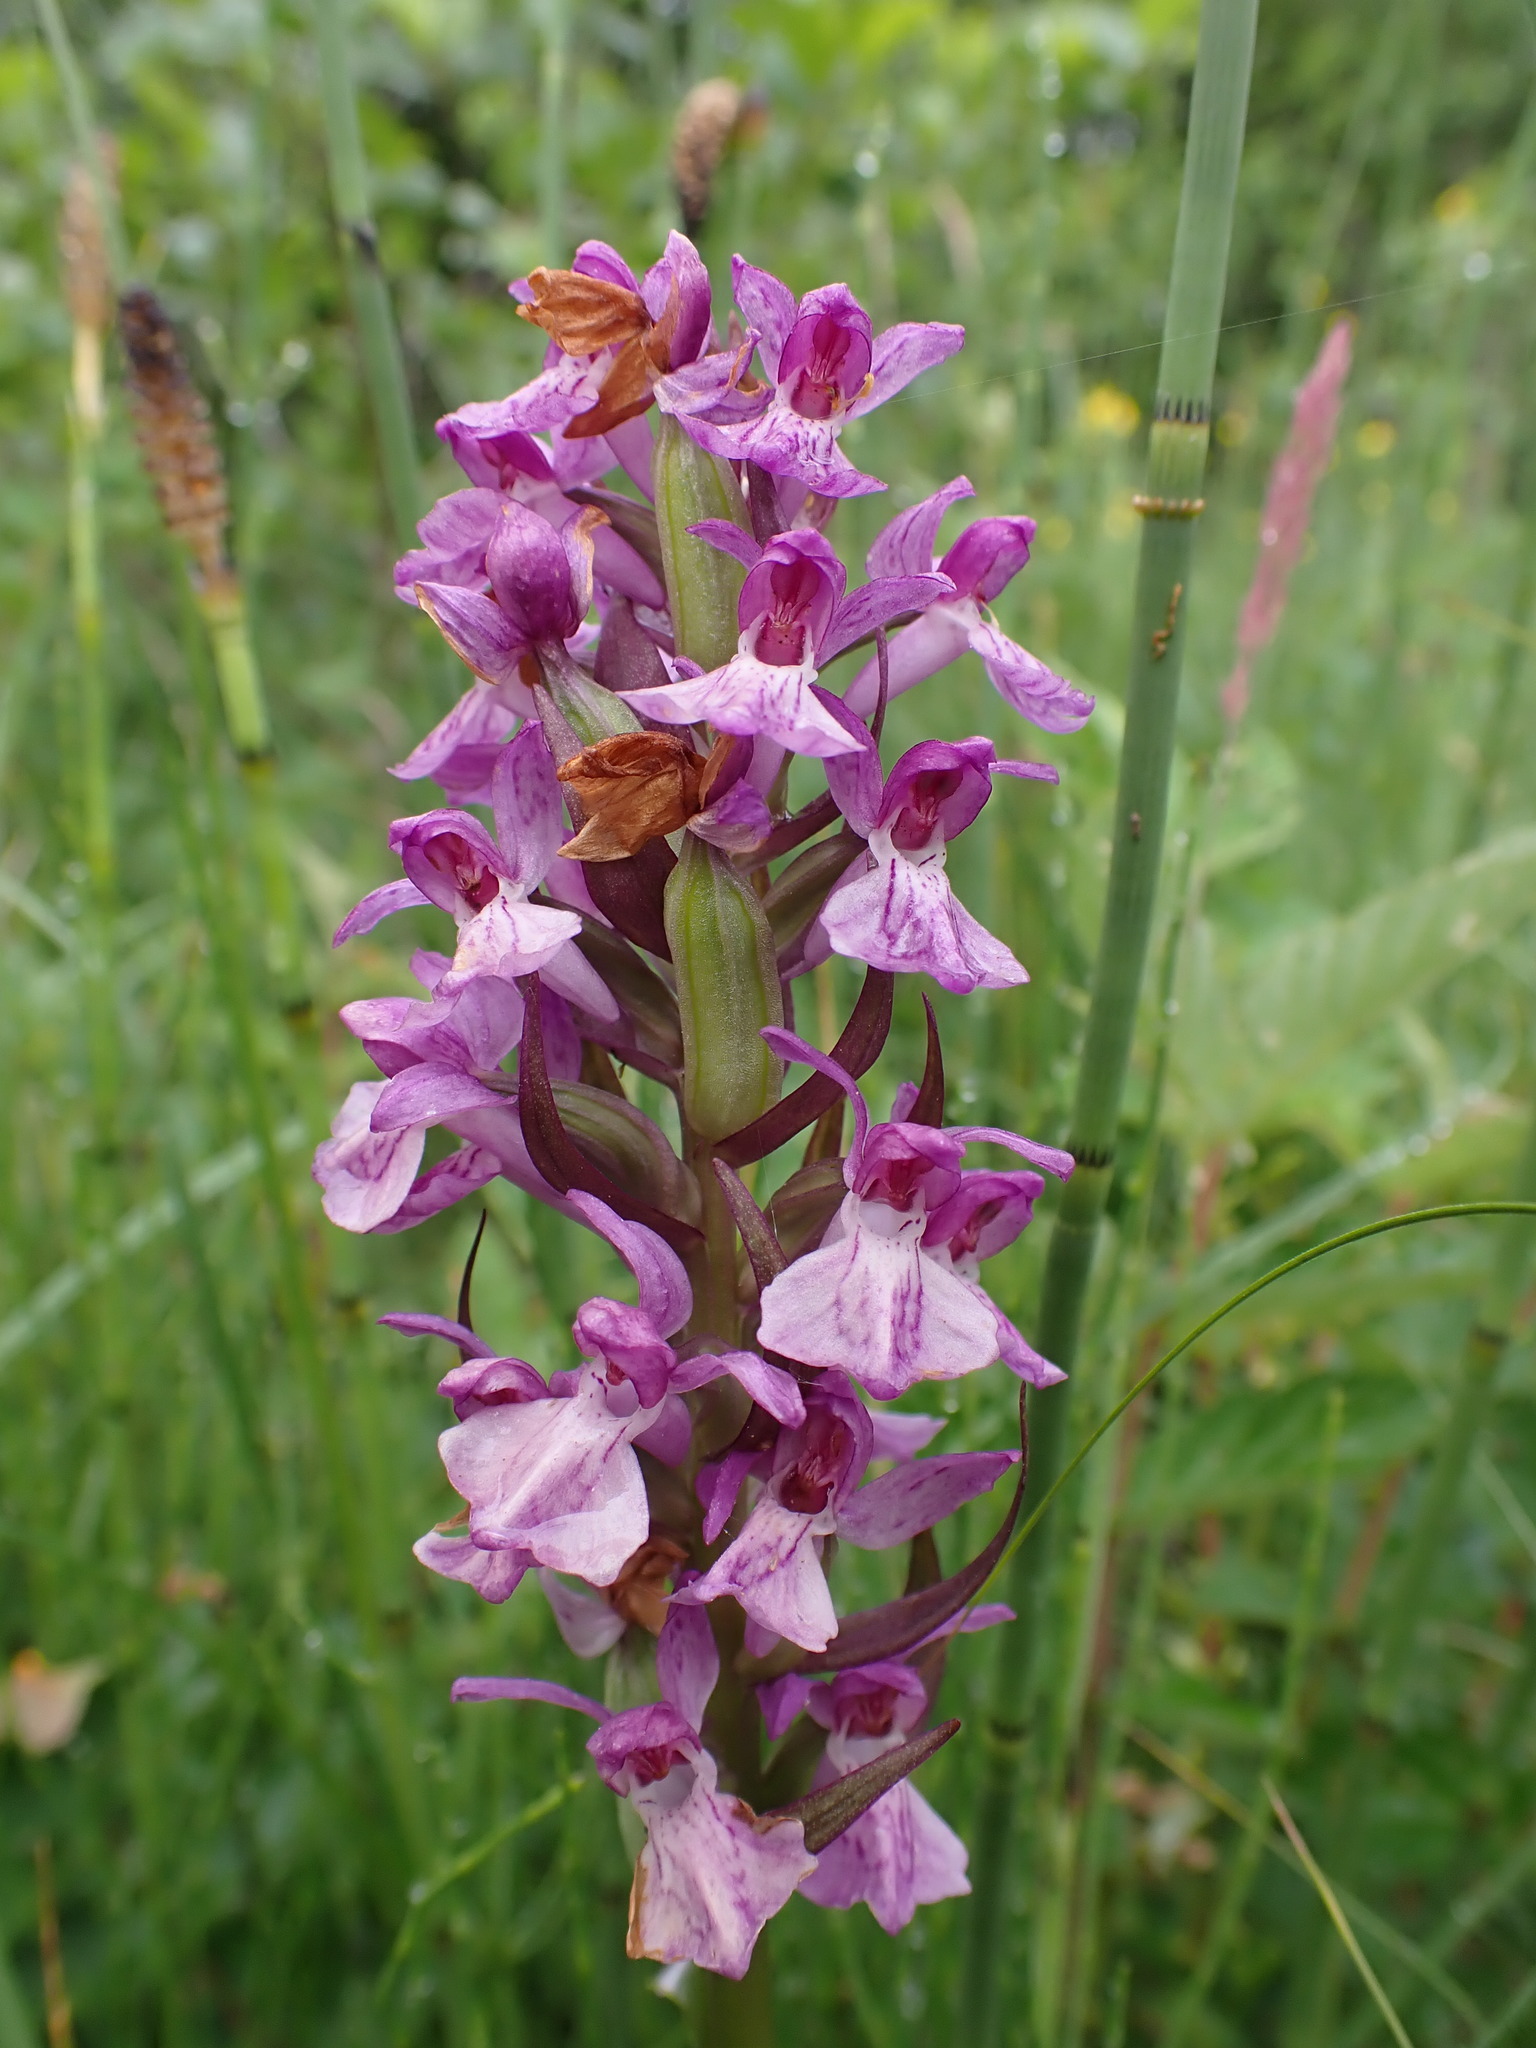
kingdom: Plantae
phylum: Tracheophyta
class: Liliopsida
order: Asparagales
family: Orchidaceae
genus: Dactylorhiza
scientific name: Dactylorhiza majalis
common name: Marsh orchid
